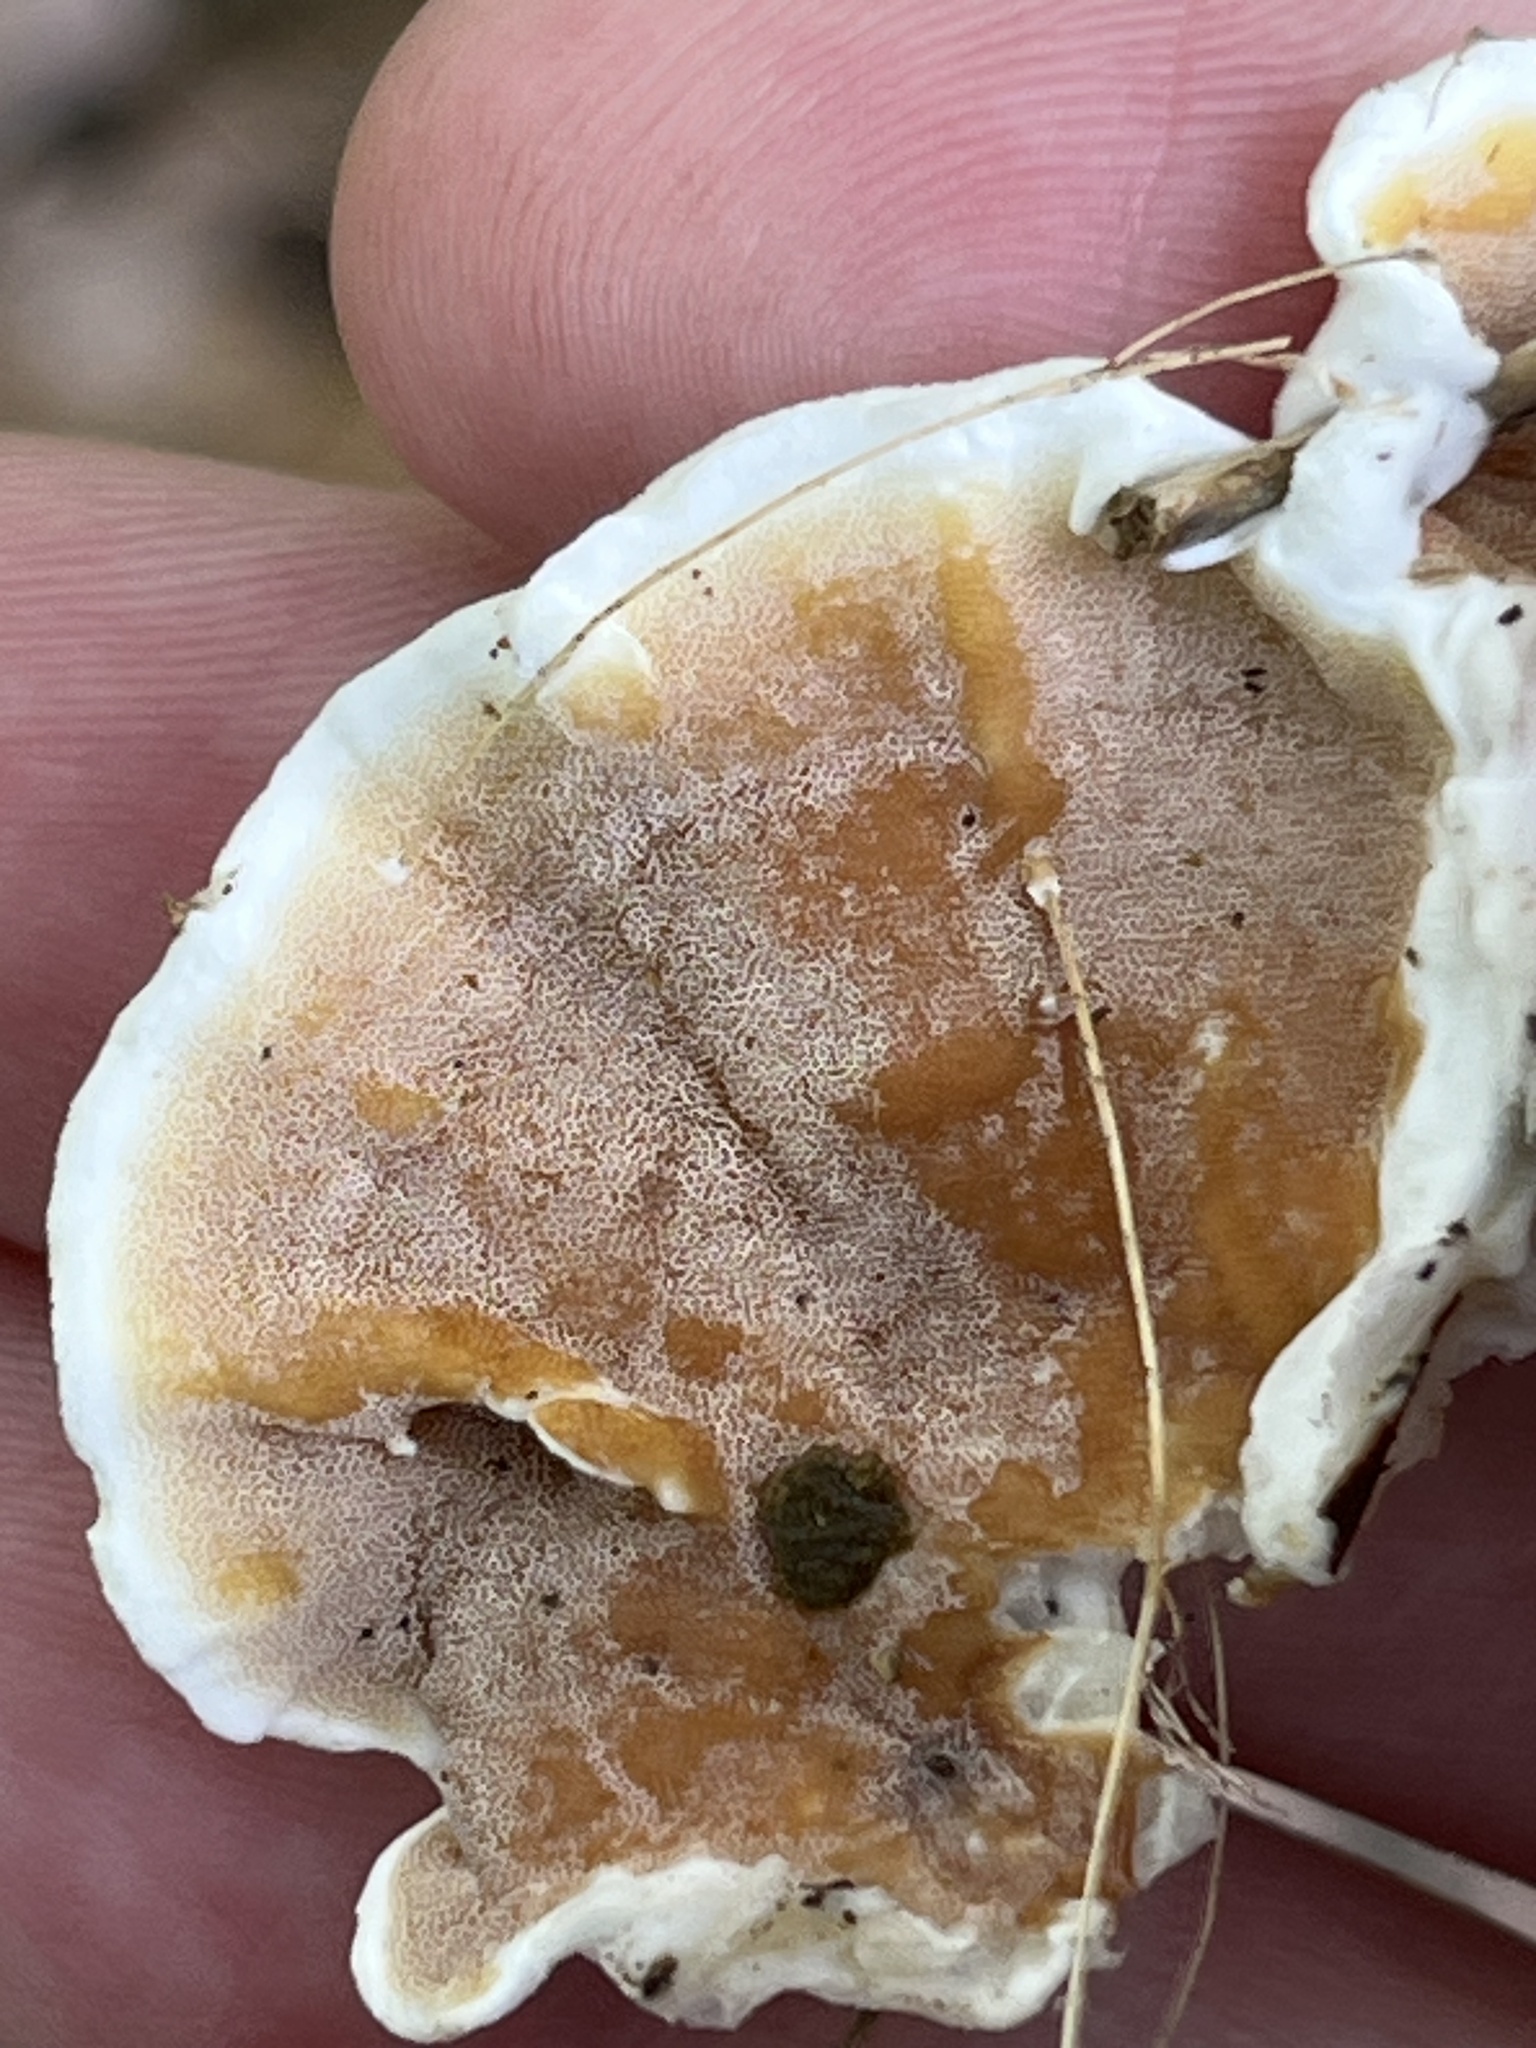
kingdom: Fungi
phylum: Basidiomycota
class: Agaricomycetes
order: Polyporales
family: Irpicaceae
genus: Vitreoporus
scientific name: Vitreoporus dichrous
